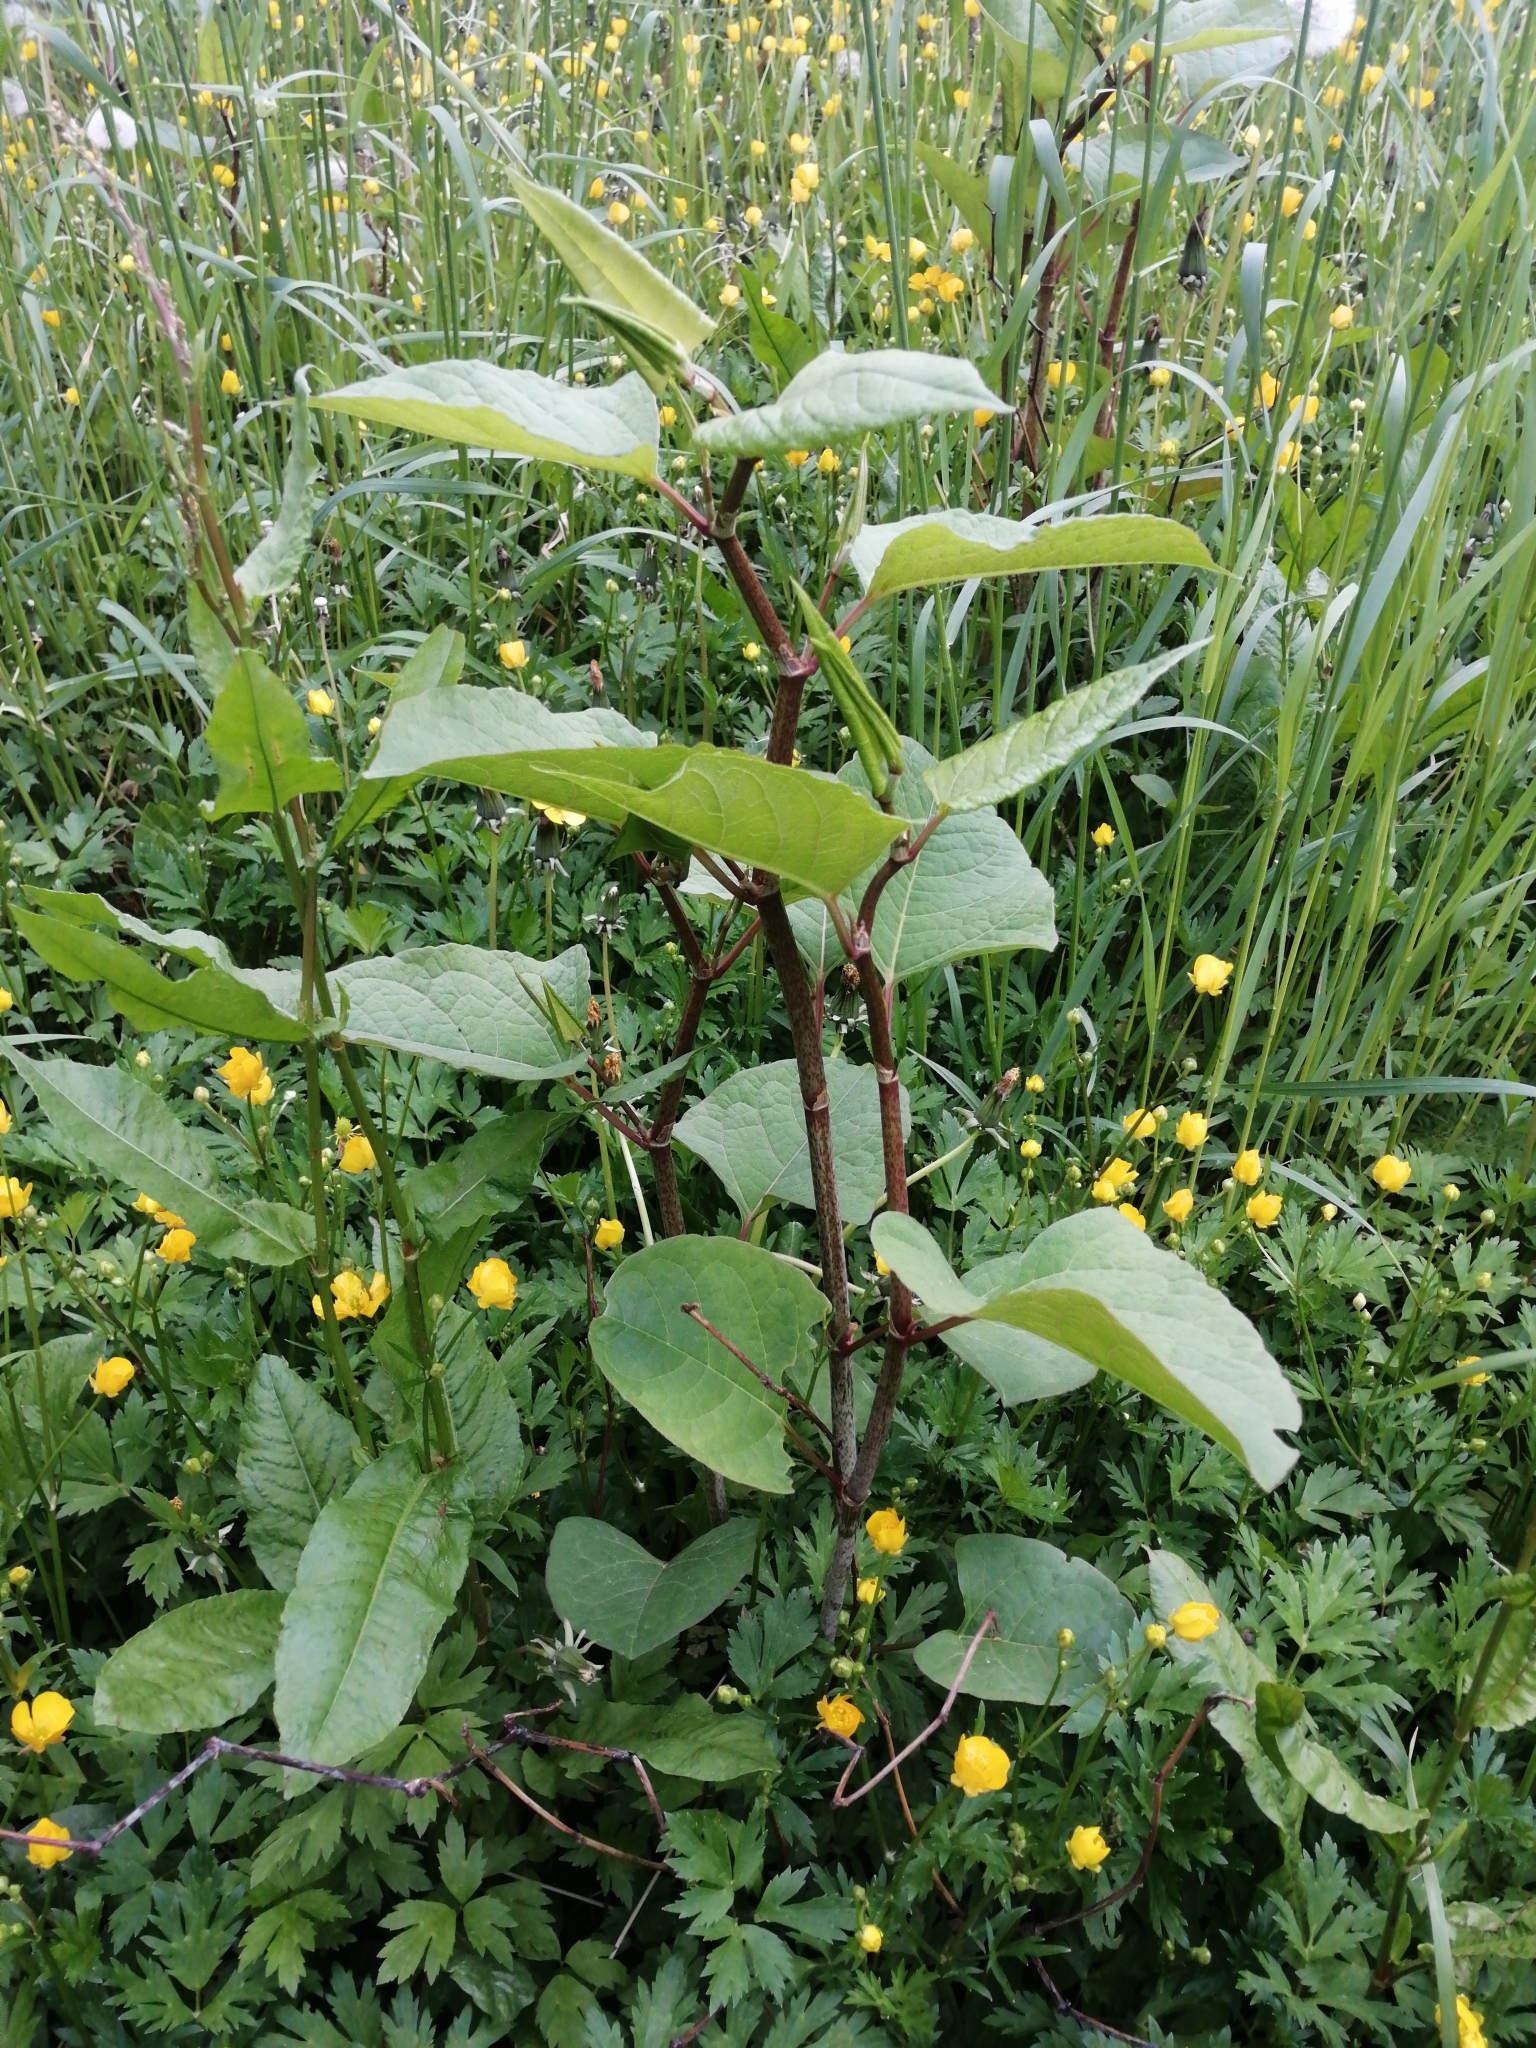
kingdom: Plantae
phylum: Tracheophyta
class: Magnoliopsida
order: Caryophyllales
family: Polygonaceae
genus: Reynoutria
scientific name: Reynoutria japonica
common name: Japanese knotweed
